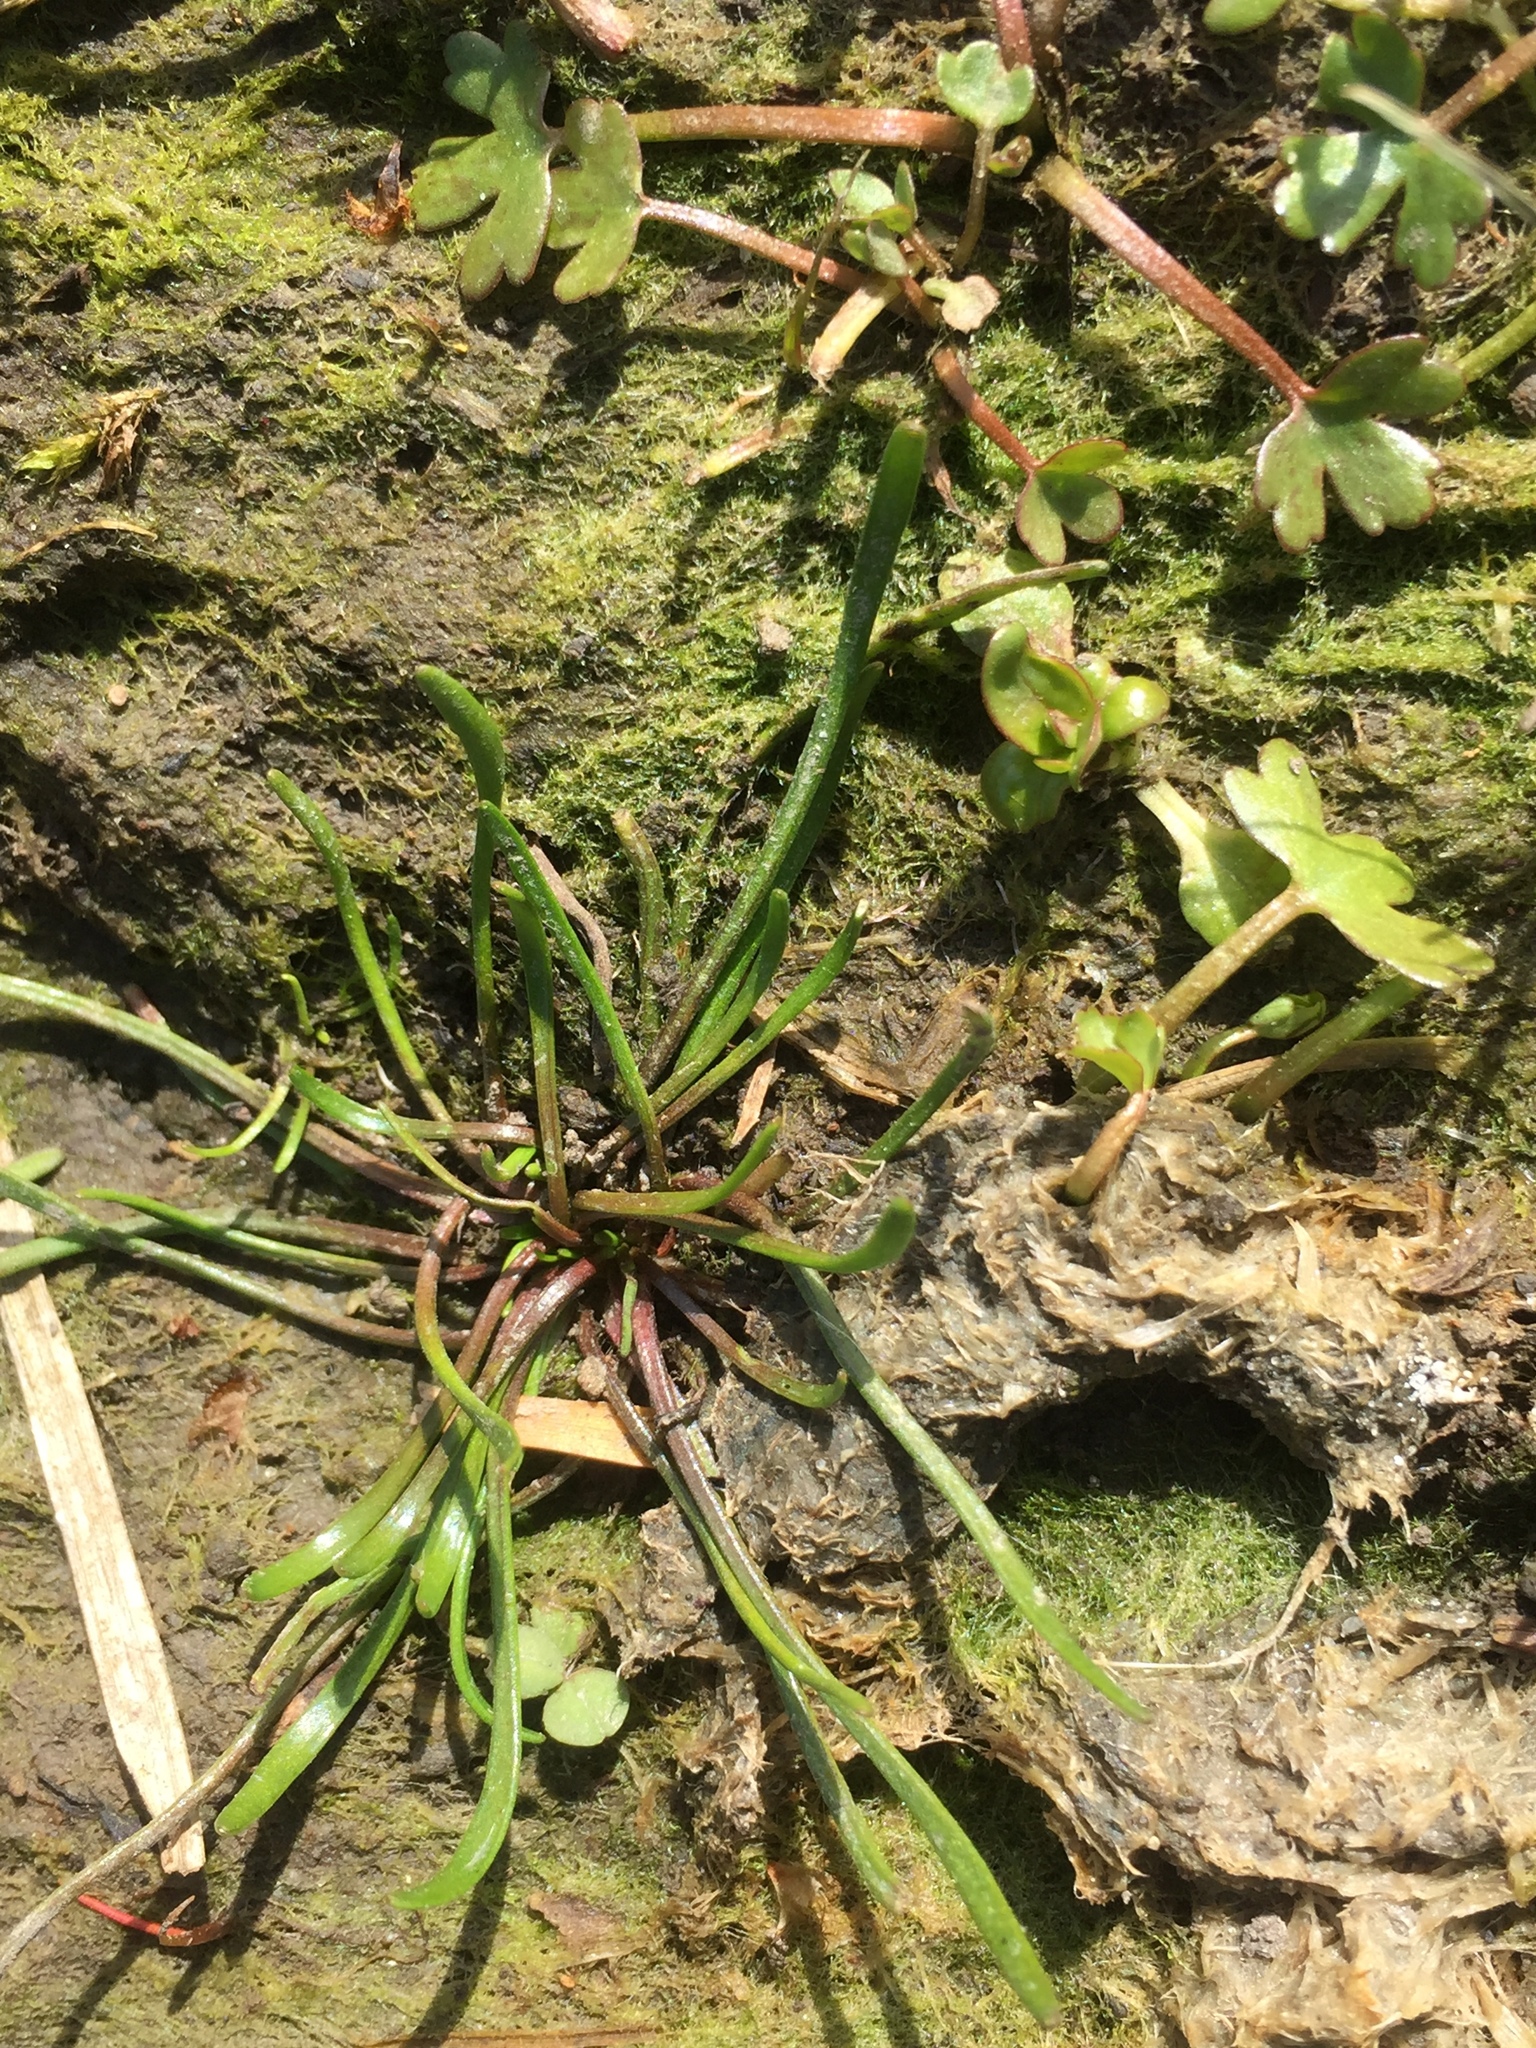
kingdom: Plantae
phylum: Tracheophyta
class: Magnoliopsida
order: Ranunculales
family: Ranunculaceae
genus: Myosurus
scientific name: Myosurus minimus
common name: Mousetail
